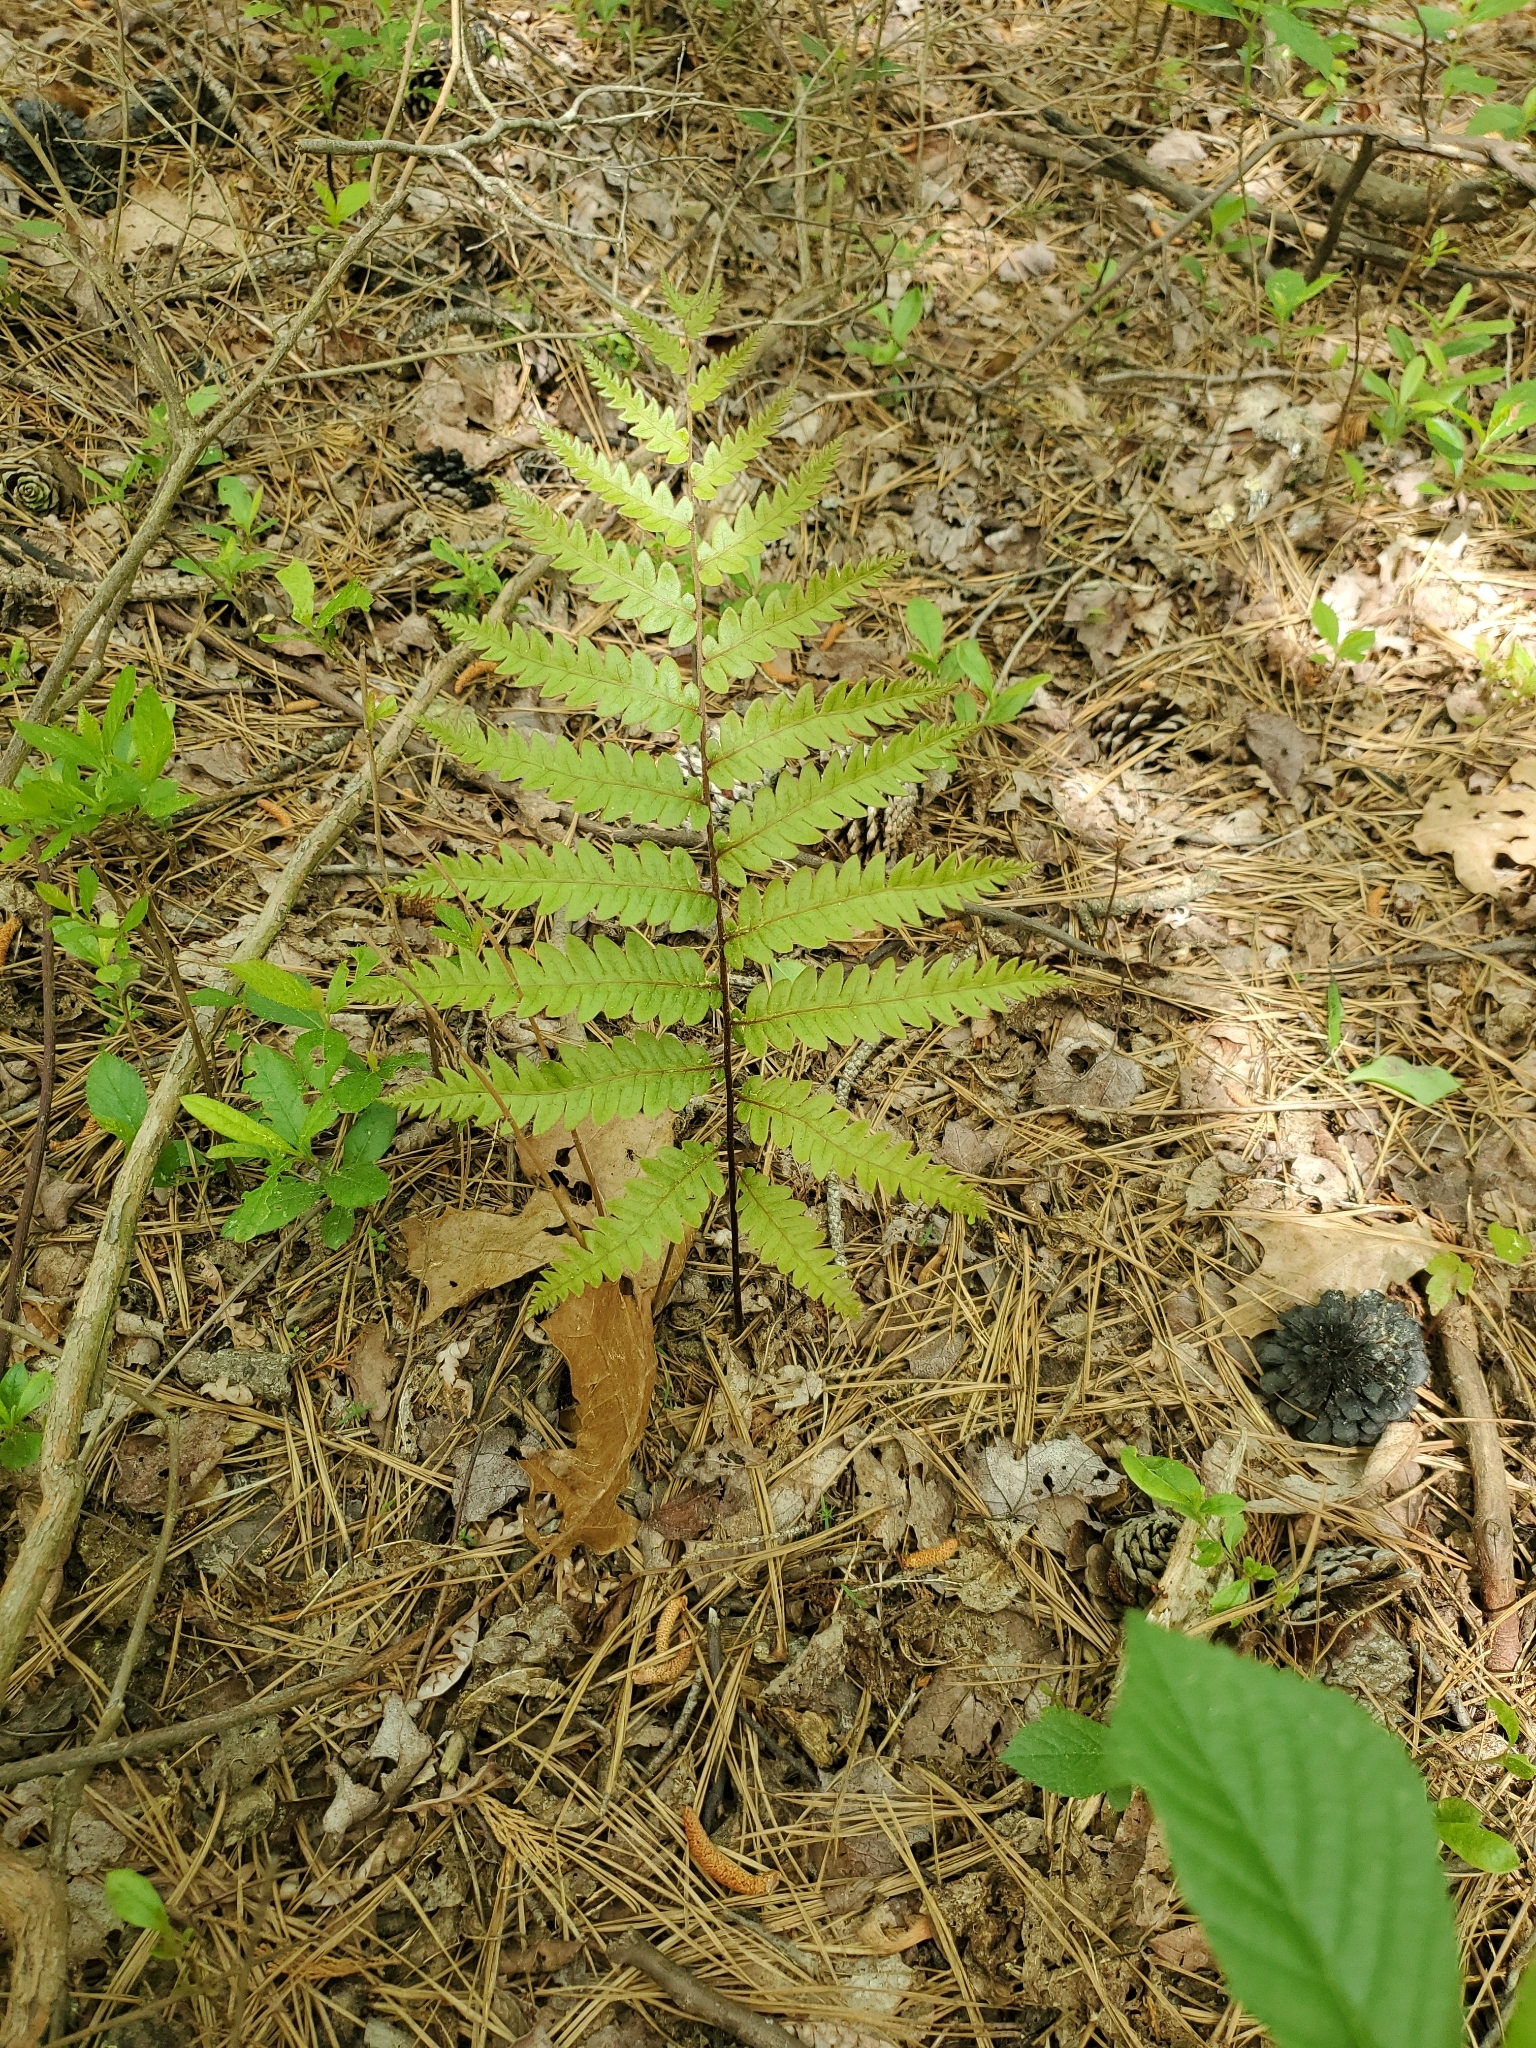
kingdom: Plantae
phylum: Tracheophyta
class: Polypodiopsida
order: Polypodiales
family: Blechnaceae
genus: Anchistea
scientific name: Anchistea virginica
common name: Virginia chain fern
